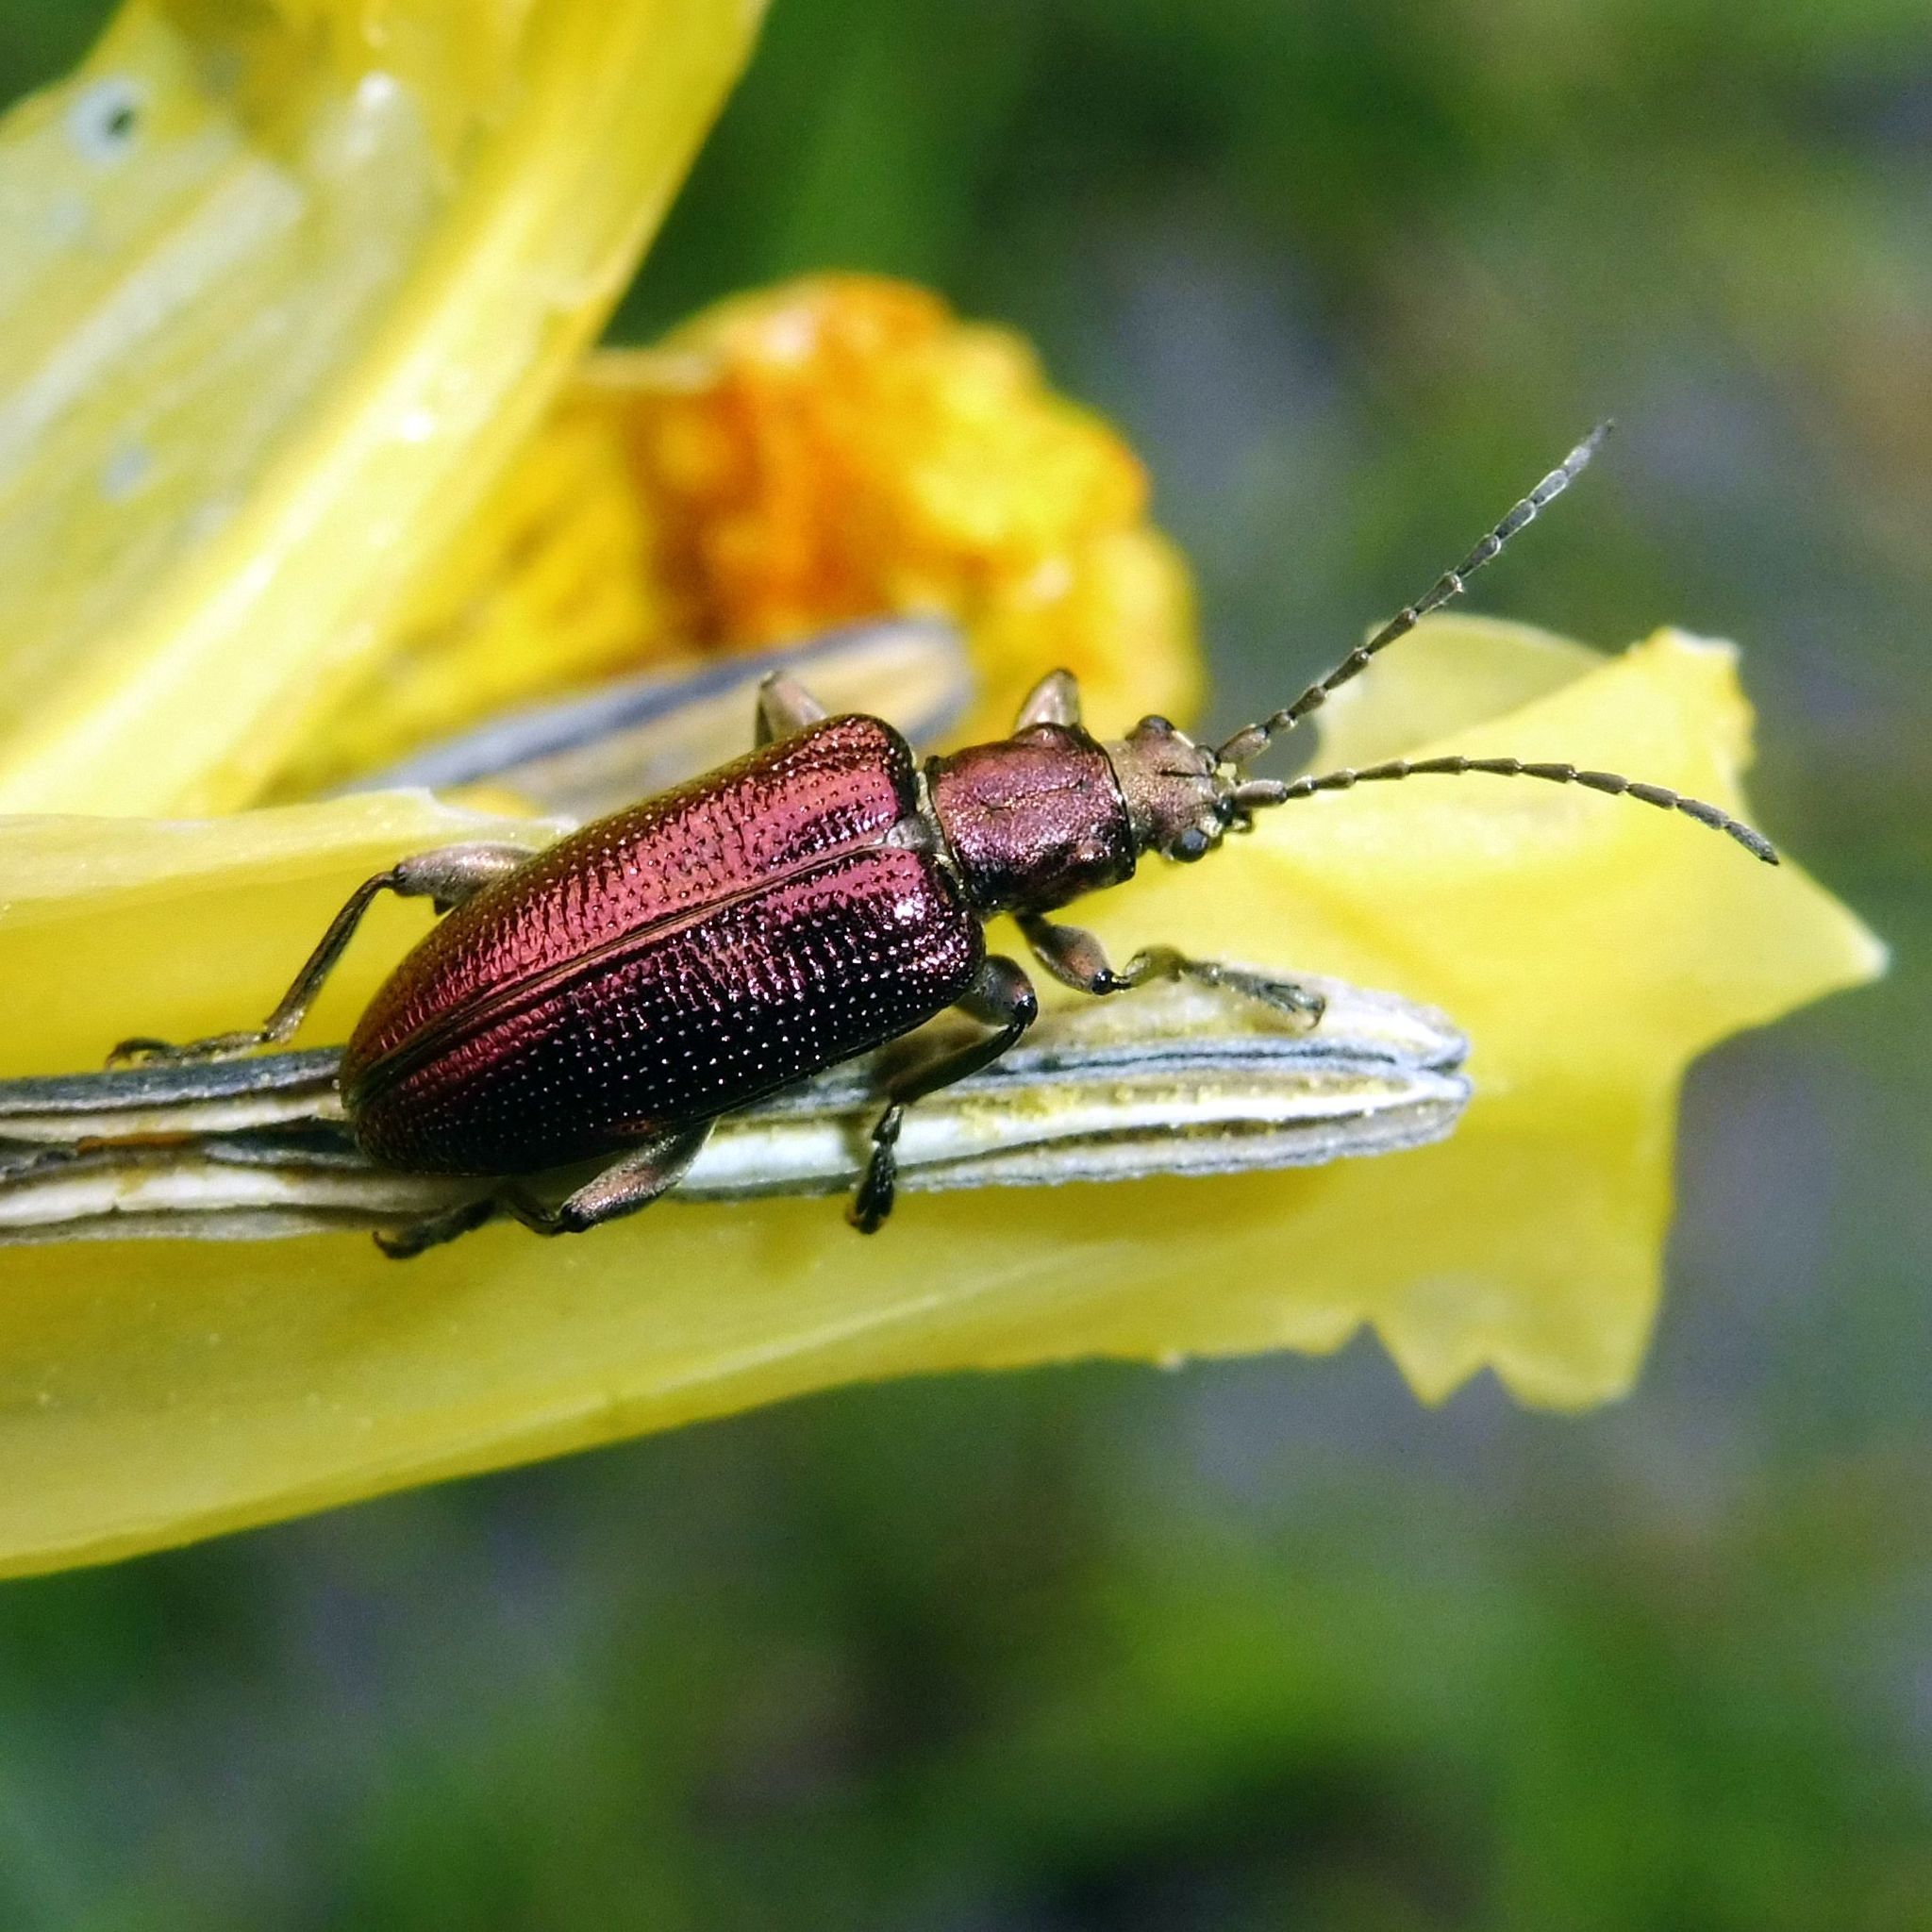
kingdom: Animalia
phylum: Arthropoda
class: Insecta
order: Coleoptera
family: Chrysomelidae
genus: Plateumaris
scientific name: Plateumaris sericea
